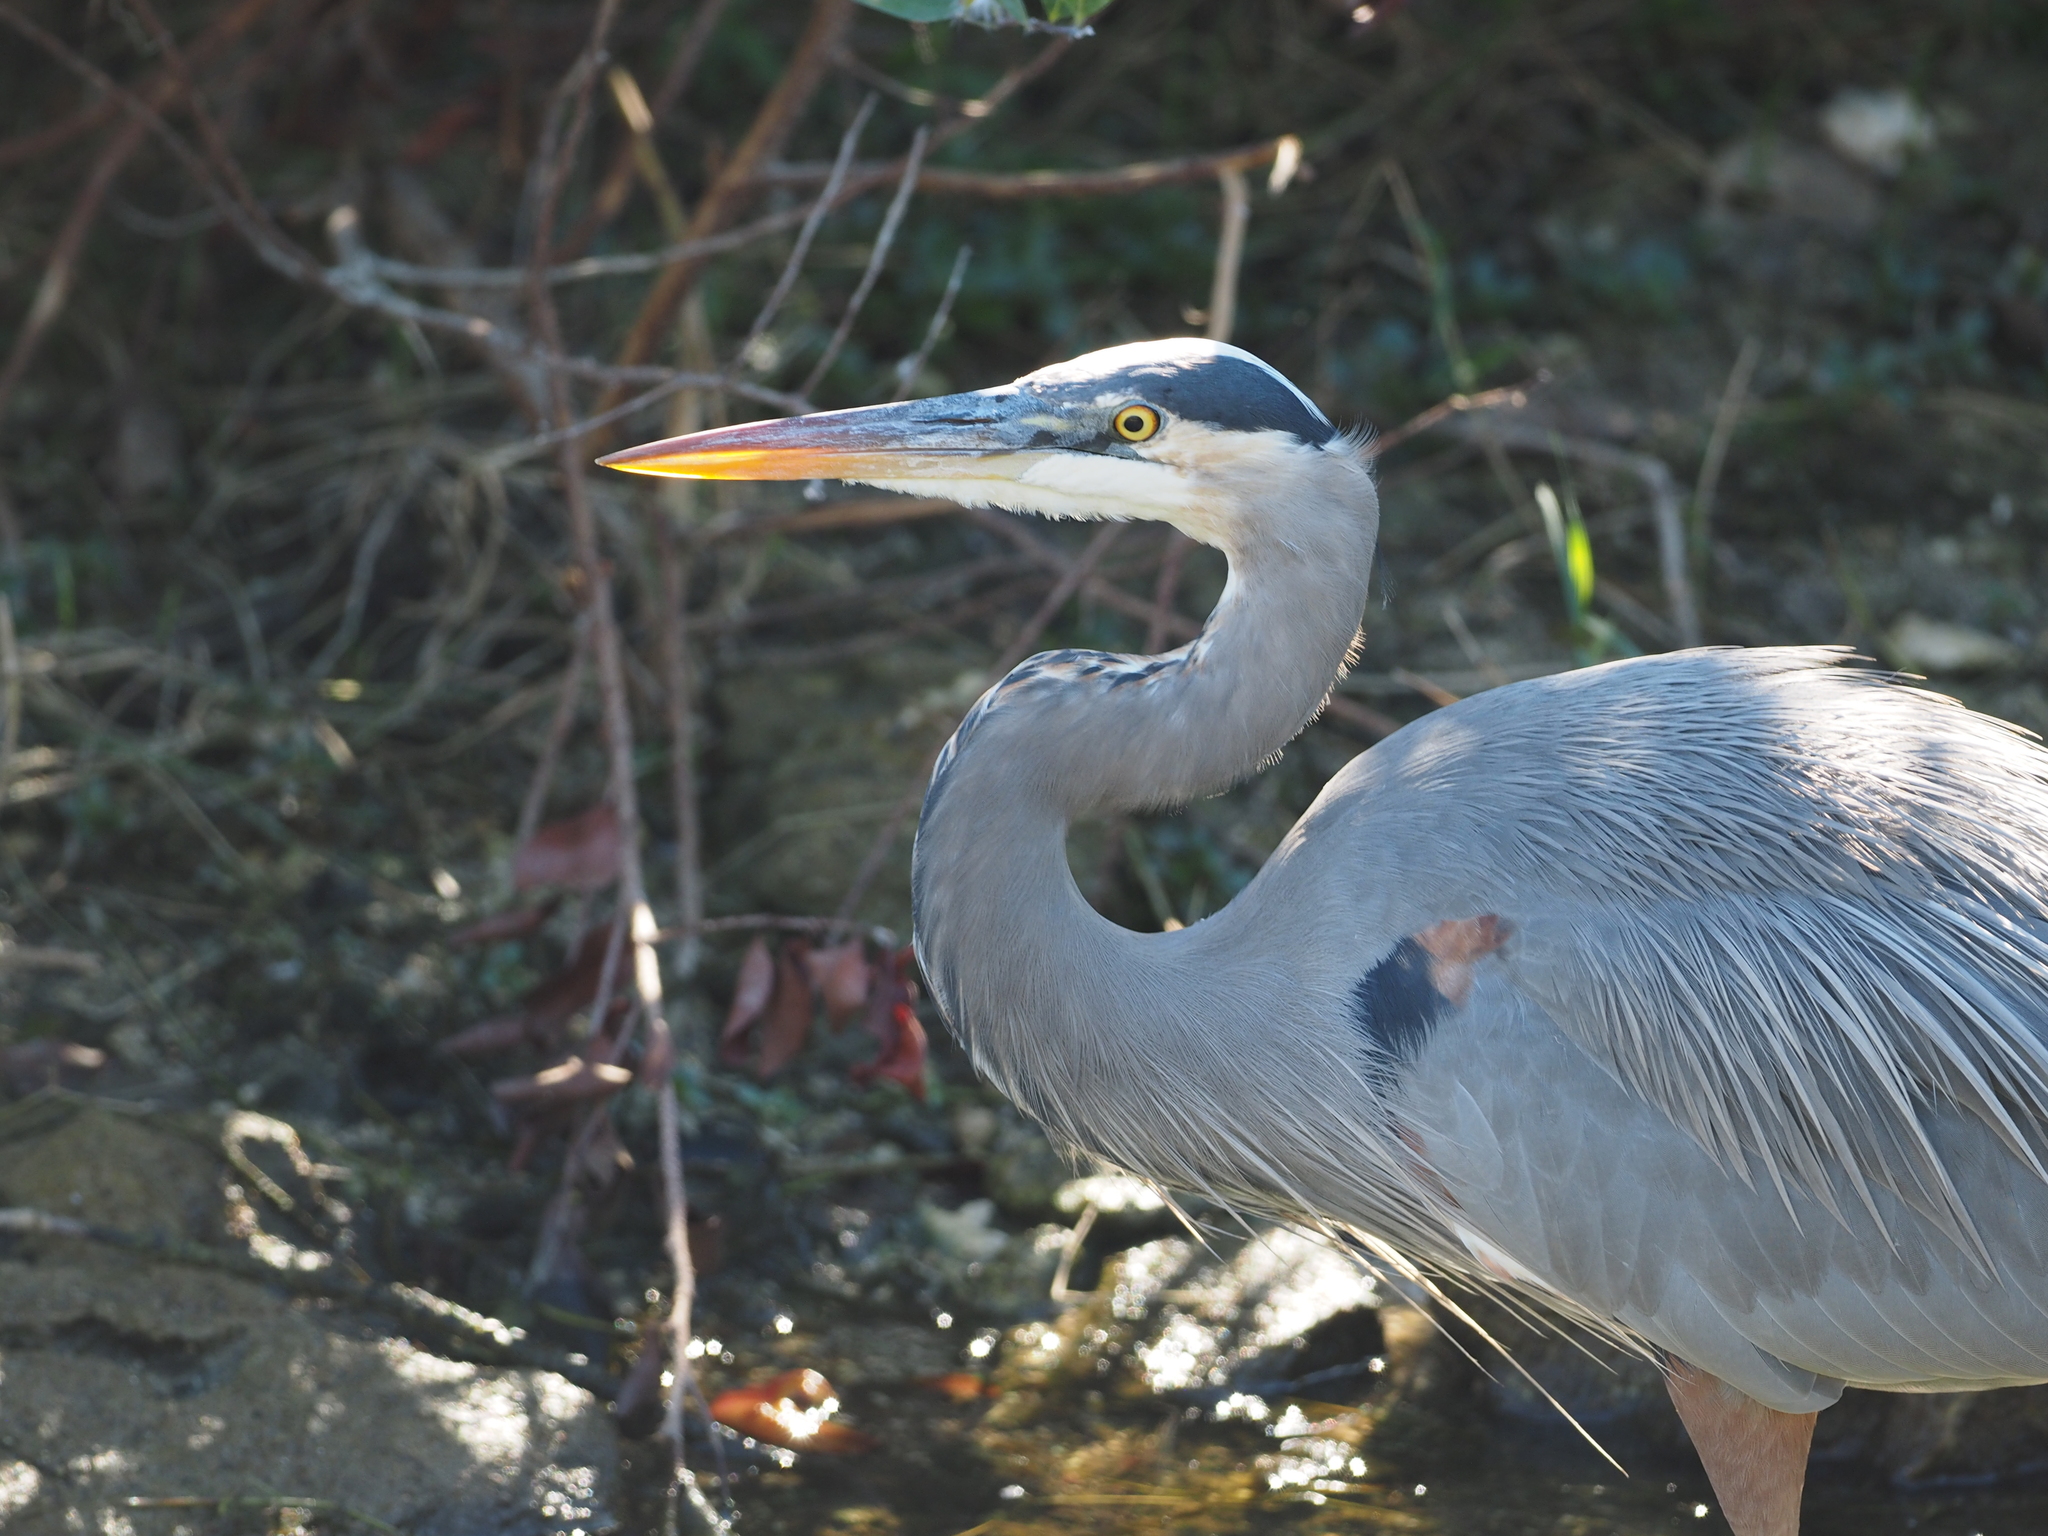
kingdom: Animalia
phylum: Chordata
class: Aves
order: Pelecaniformes
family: Ardeidae
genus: Ardea
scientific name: Ardea herodias
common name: Great blue heron
